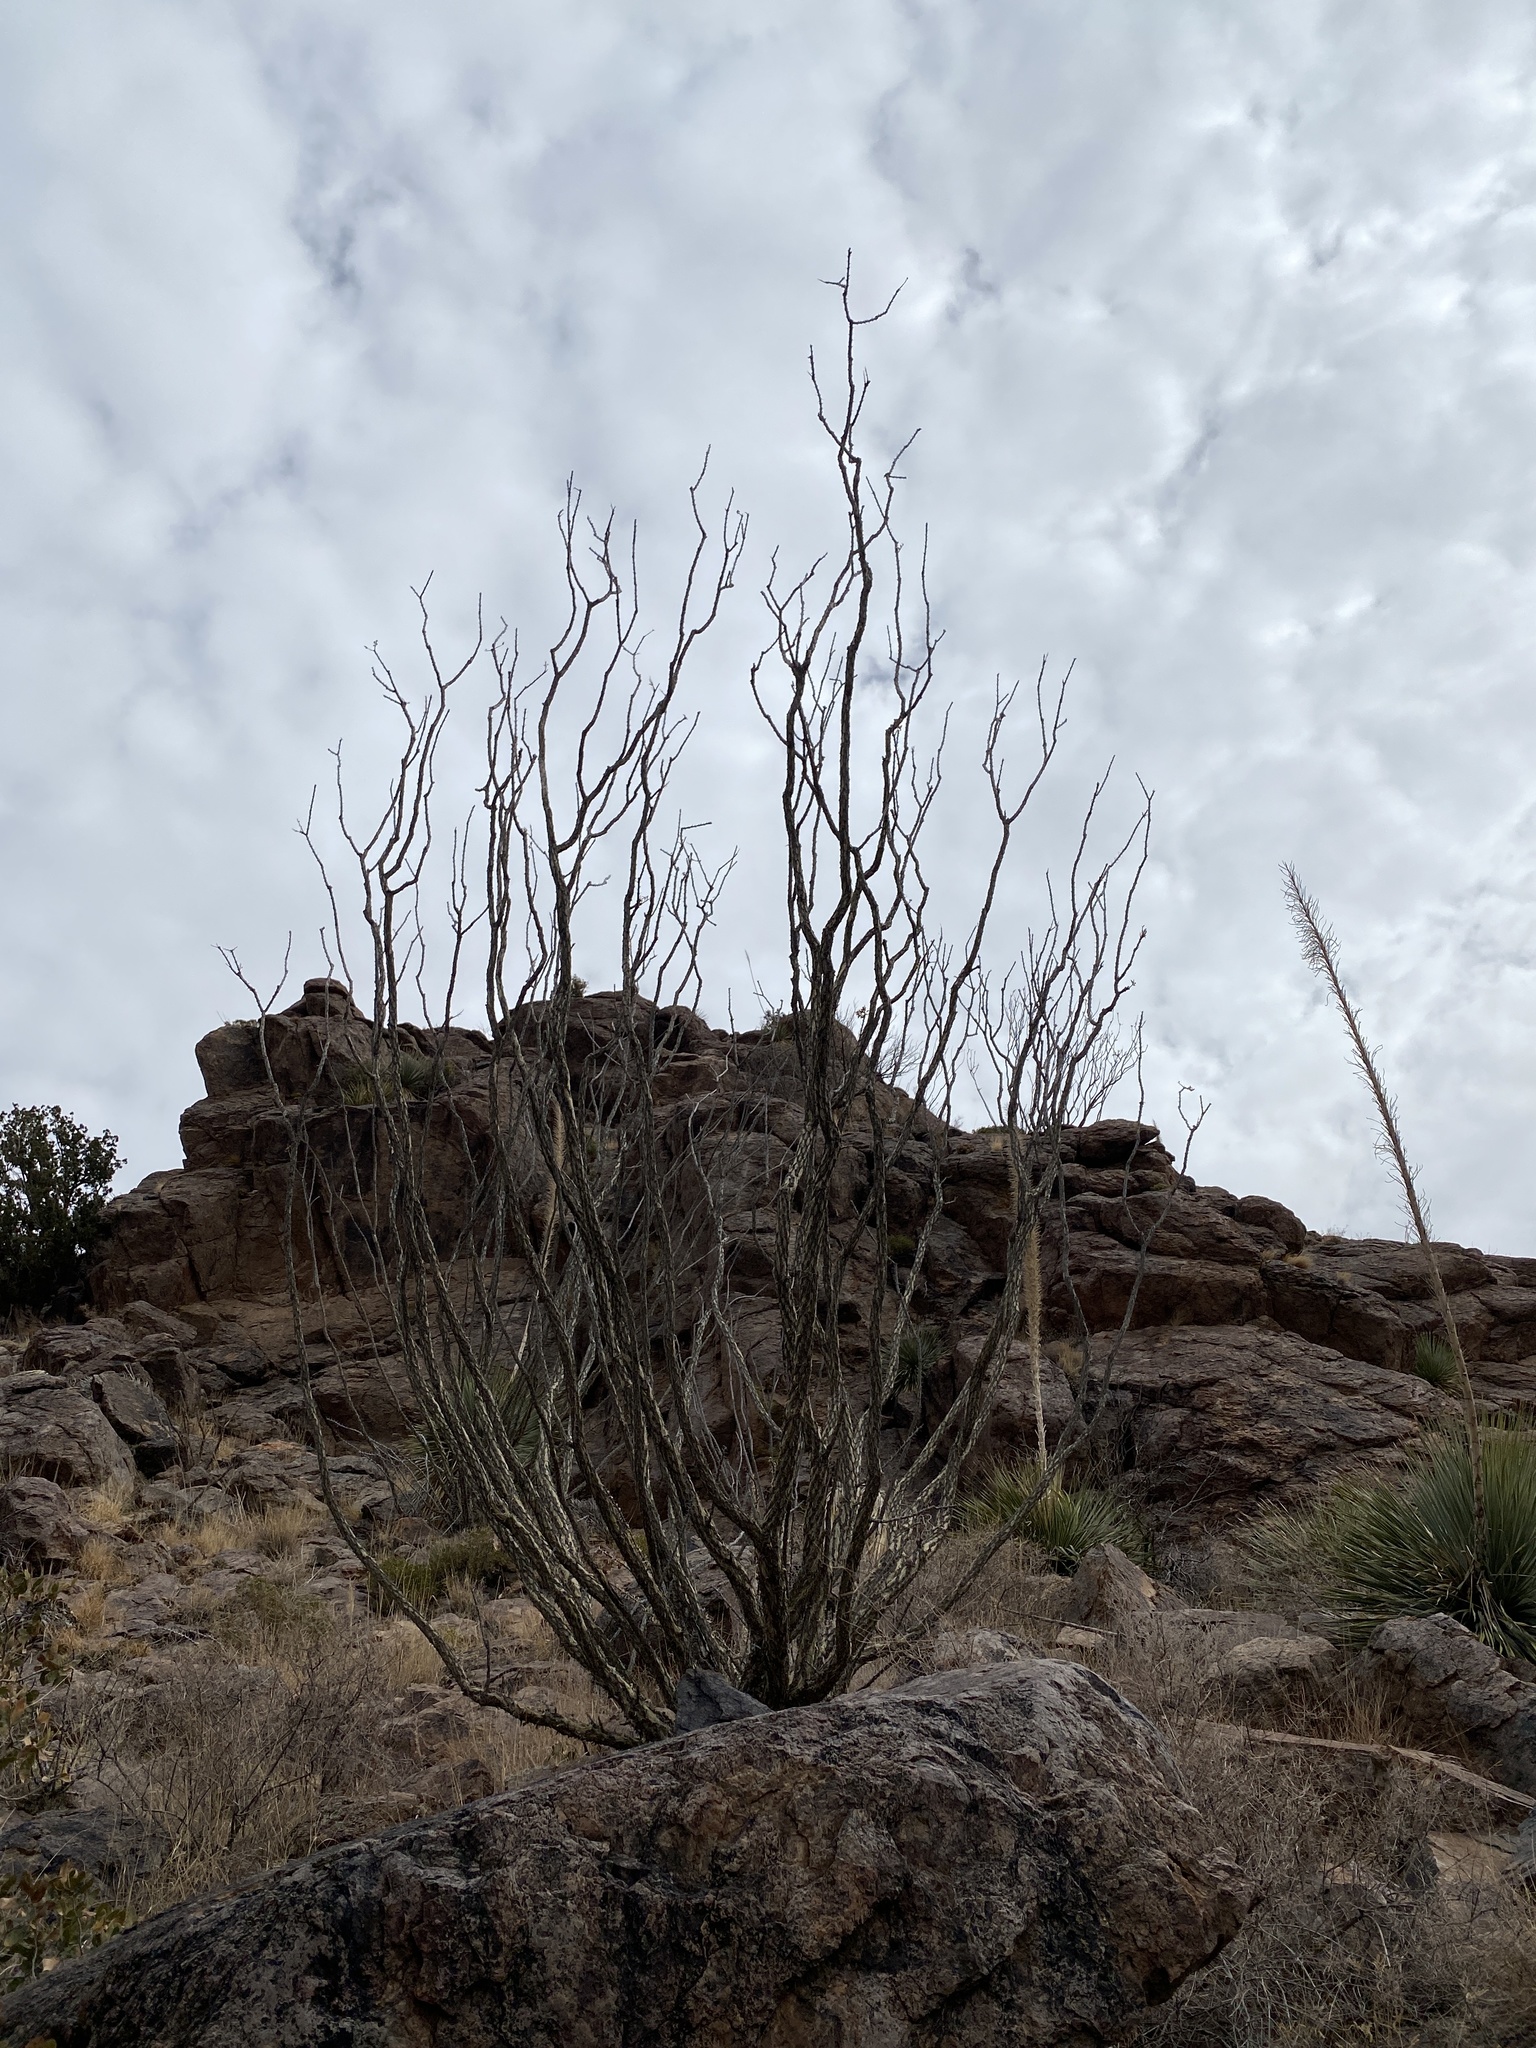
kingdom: Plantae
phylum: Tracheophyta
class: Magnoliopsida
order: Ericales
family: Fouquieriaceae
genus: Fouquieria
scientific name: Fouquieria splendens
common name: Vine-cactus
